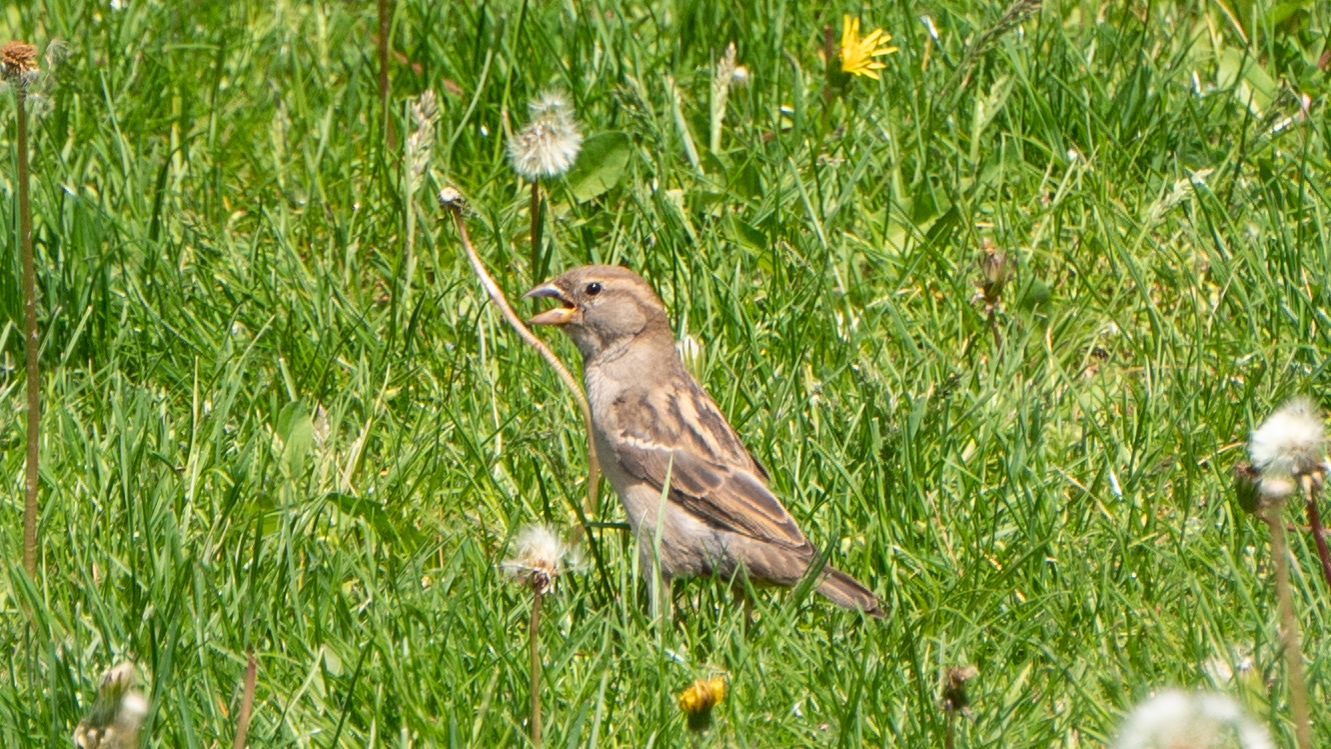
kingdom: Animalia
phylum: Chordata
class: Aves
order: Passeriformes
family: Passeridae
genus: Passer
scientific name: Passer domesticus
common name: House sparrow
